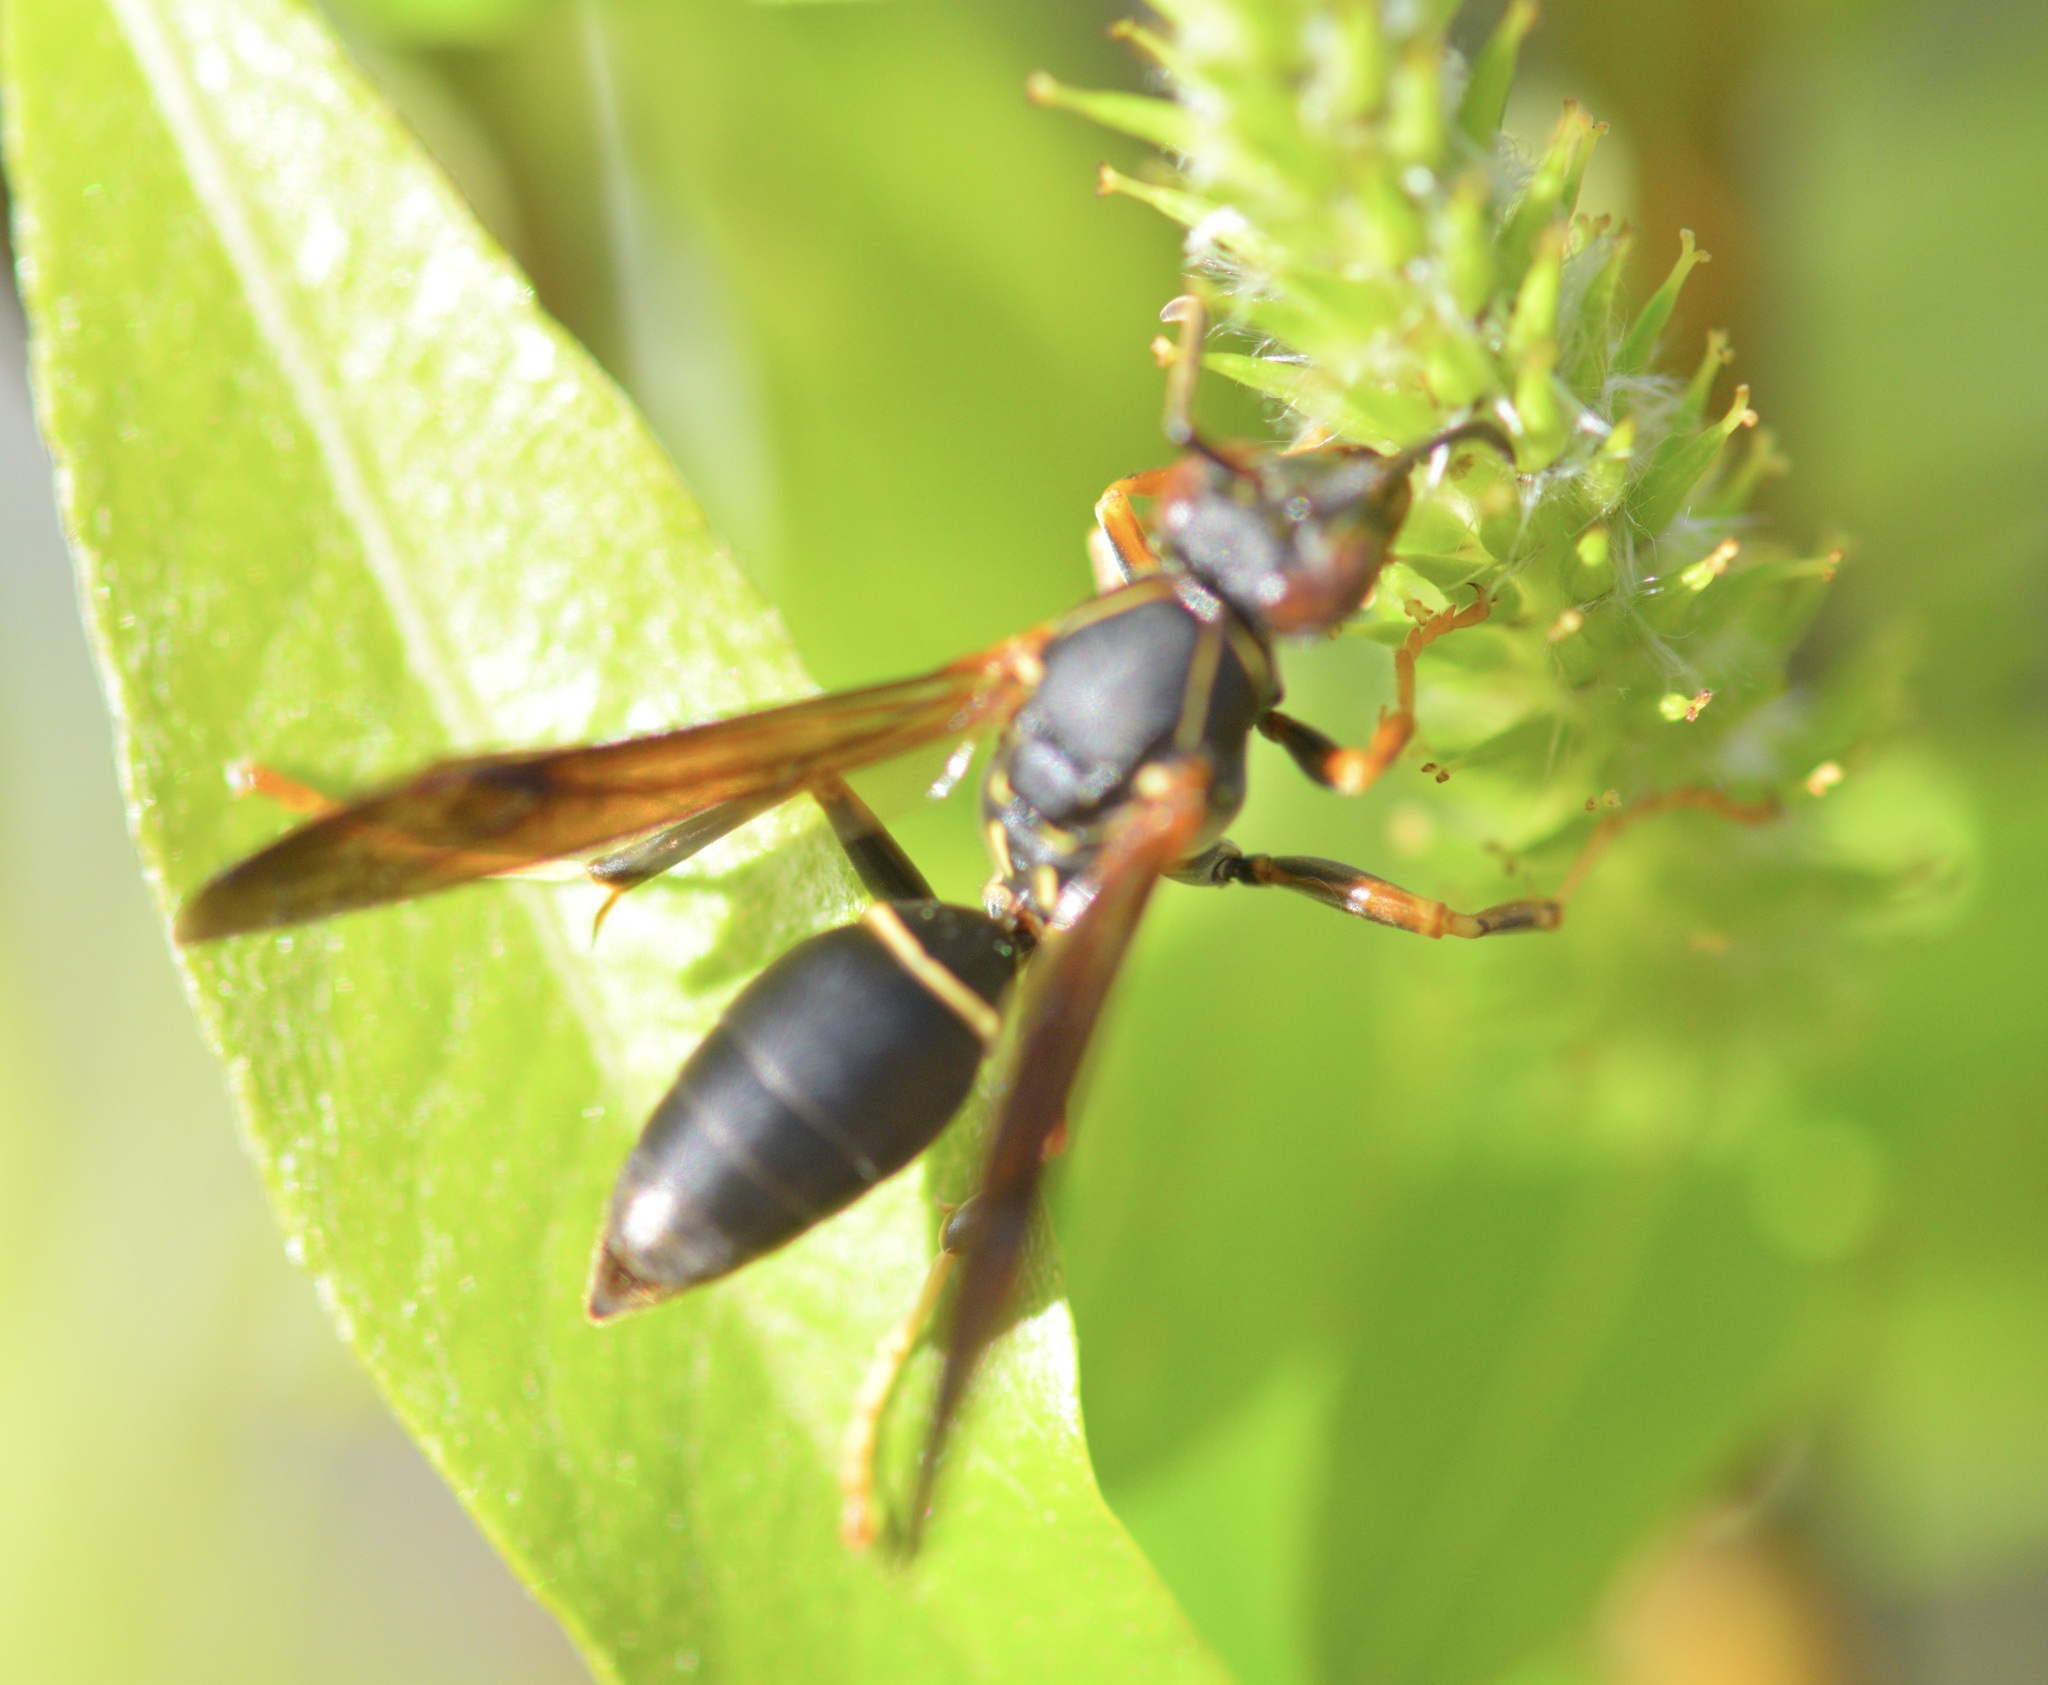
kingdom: Animalia
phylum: Arthropoda
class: Insecta
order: Hymenoptera
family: Eumenidae
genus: Polistes
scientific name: Polistes fuscatus
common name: Dark paper wasp
